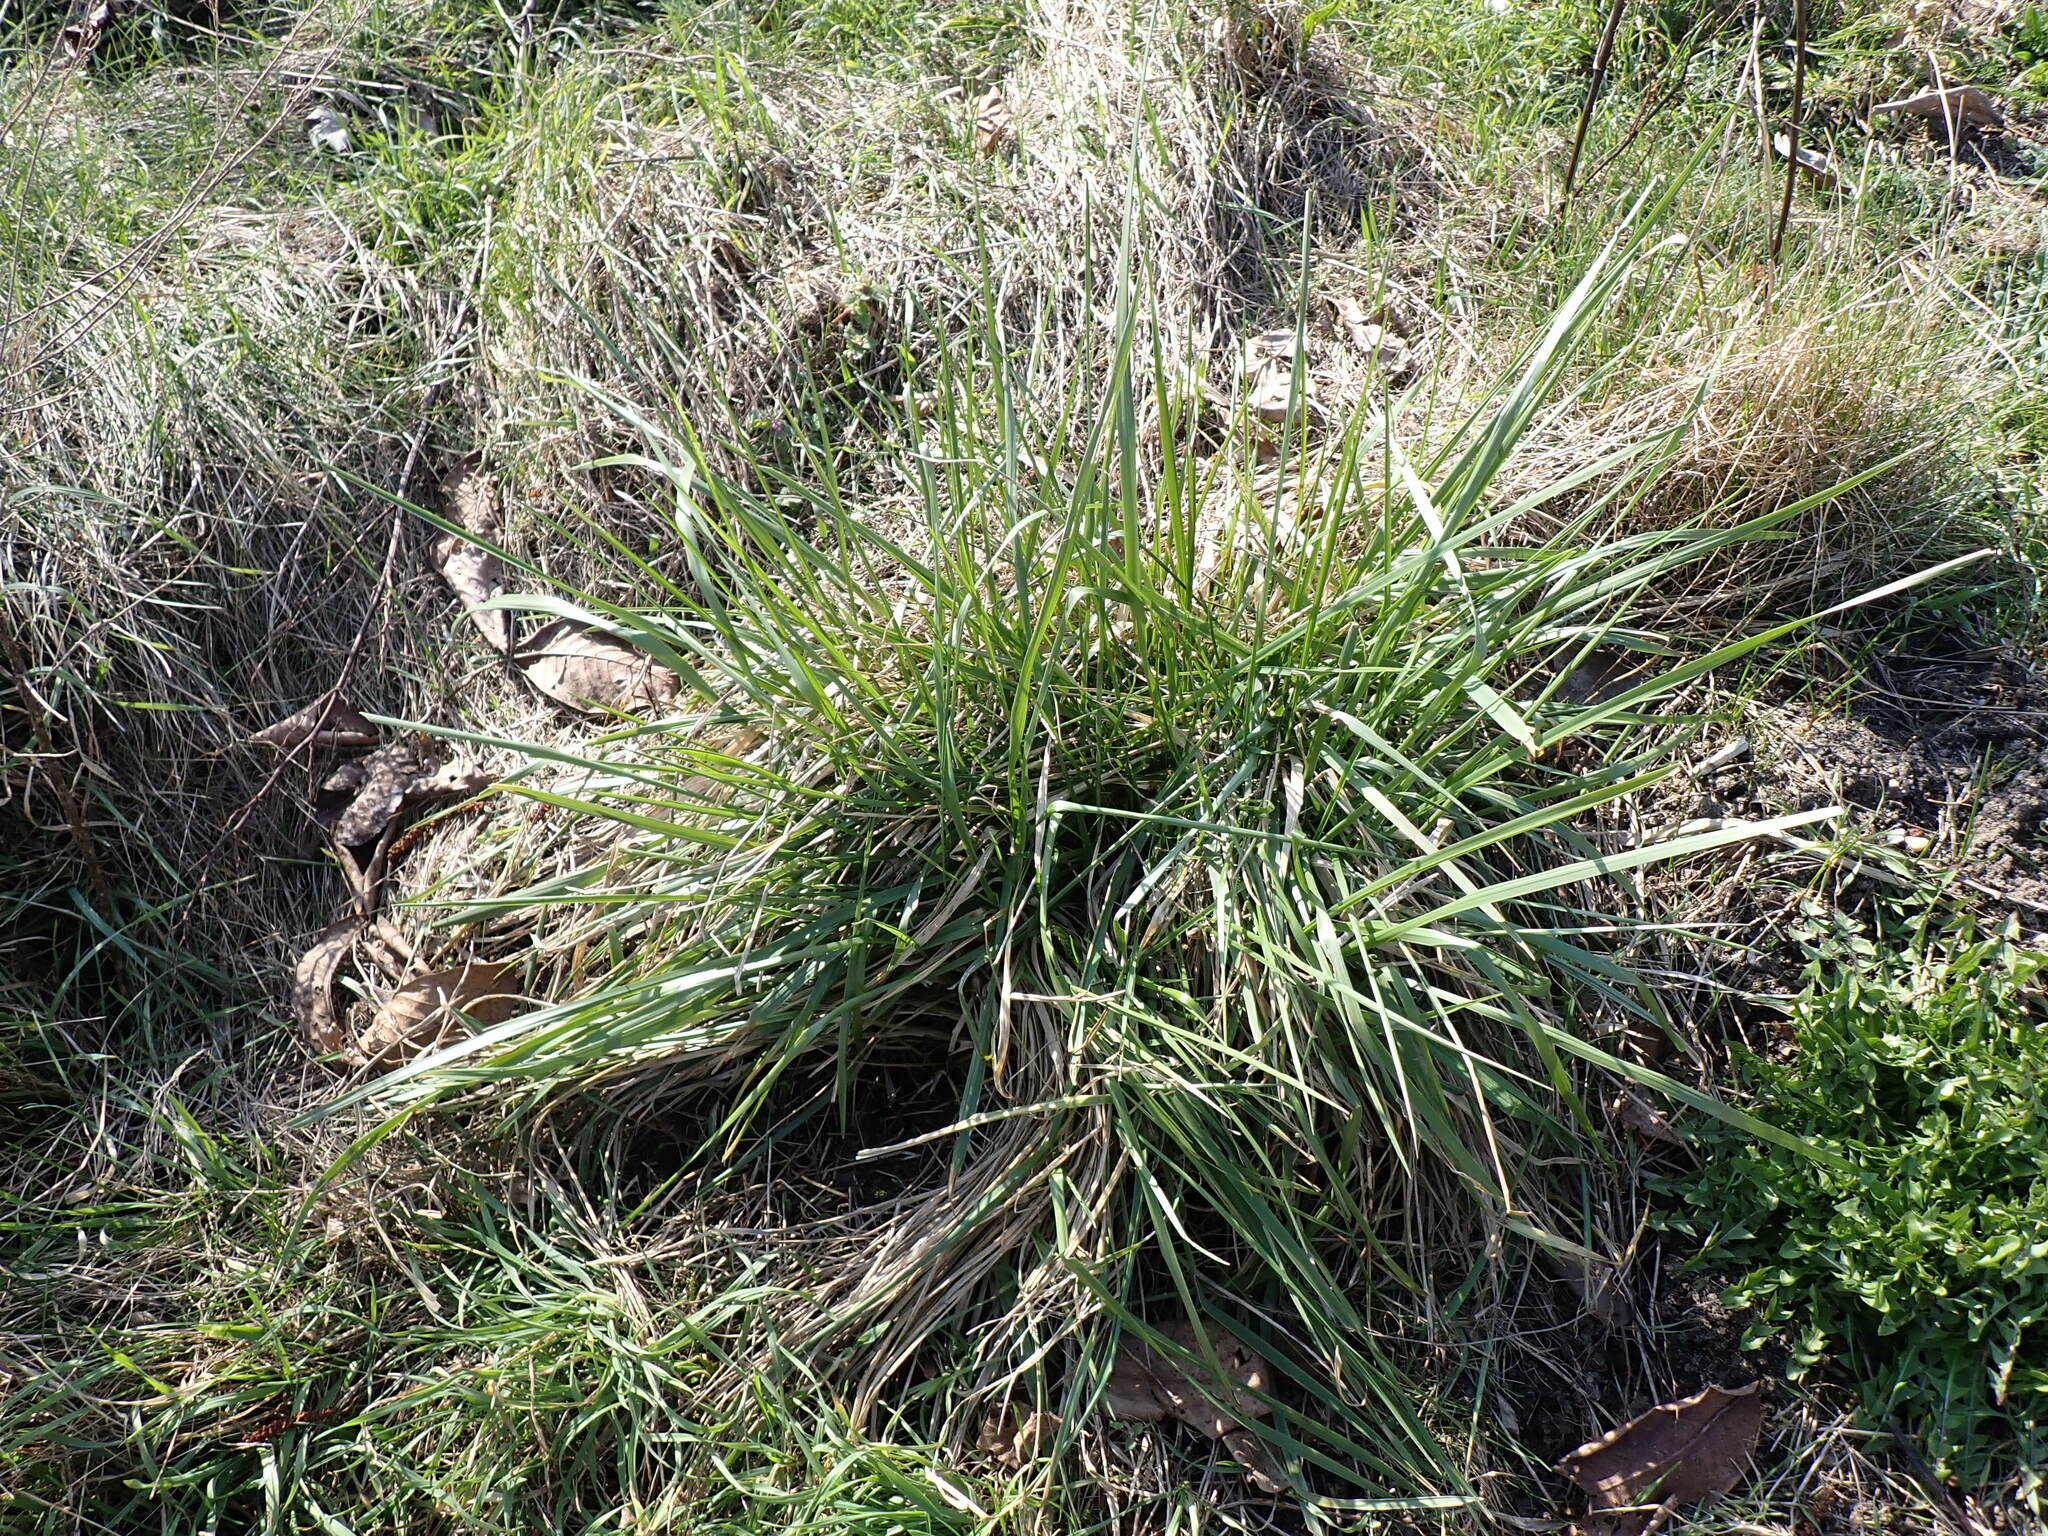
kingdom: Plantae
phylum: Tracheophyta
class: Liliopsida
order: Poales
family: Poaceae
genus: Lolium
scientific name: Lolium arundinaceum
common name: Reed fescue
